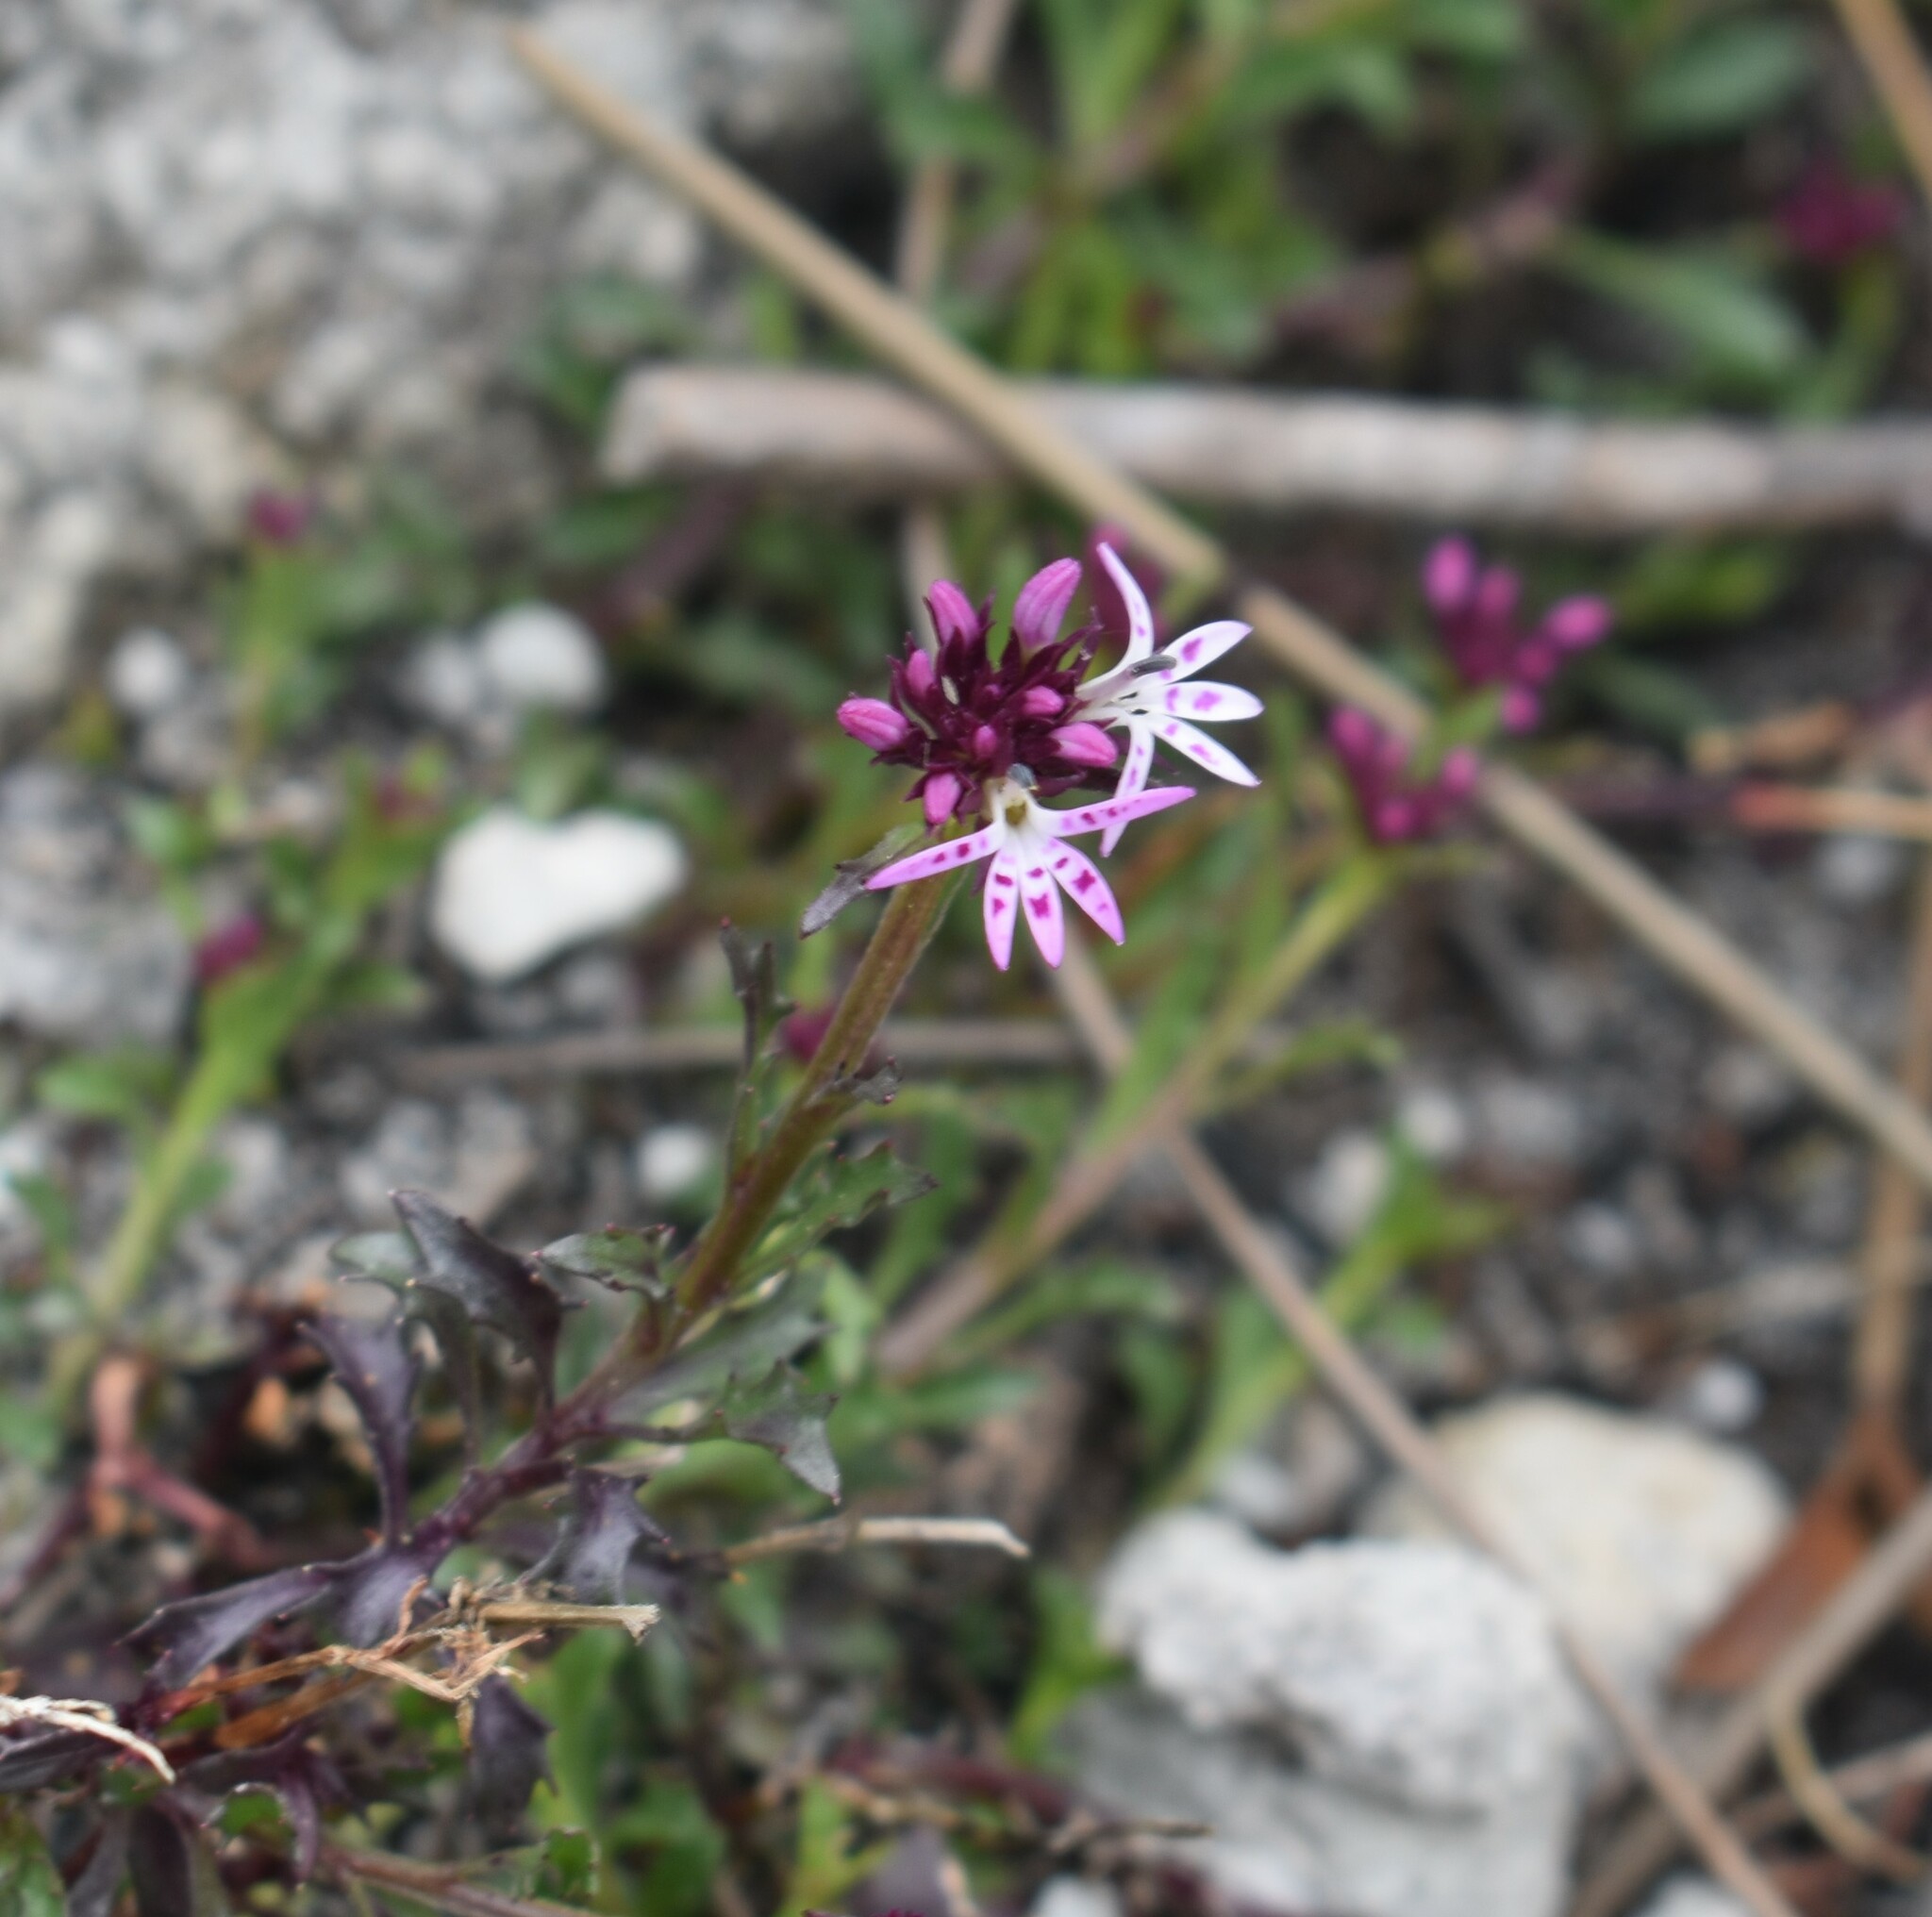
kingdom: Plantae
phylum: Tracheophyta
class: Magnoliopsida
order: Asterales
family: Campanulaceae
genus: Lobelia
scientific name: Lobelia jasionoides
